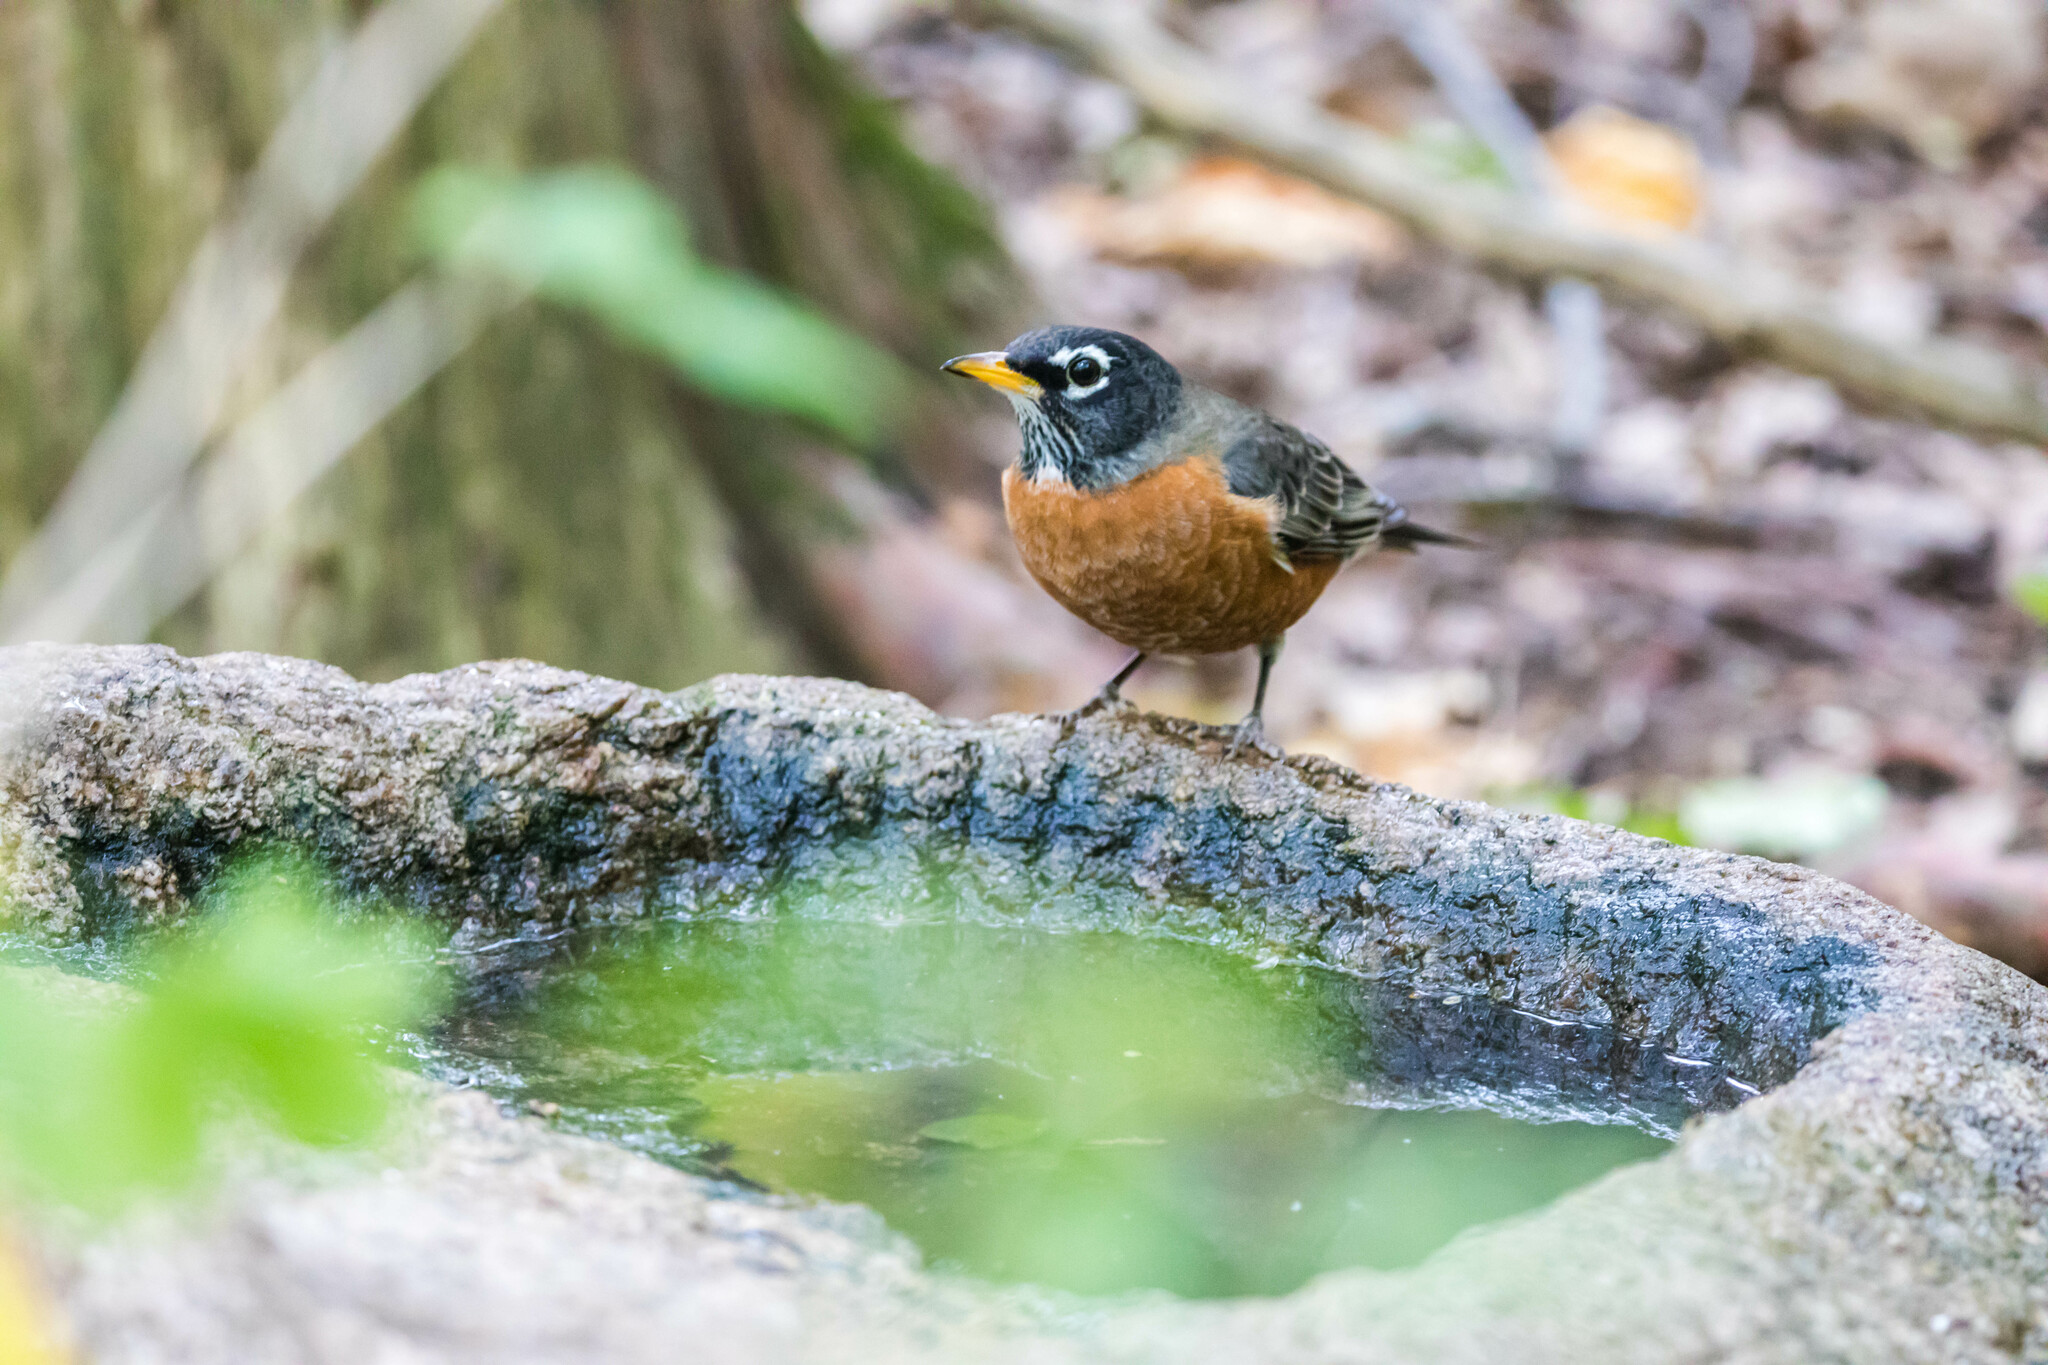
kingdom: Animalia
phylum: Chordata
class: Aves
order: Passeriformes
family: Turdidae
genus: Turdus
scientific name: Turdus migratorius
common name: American robin
